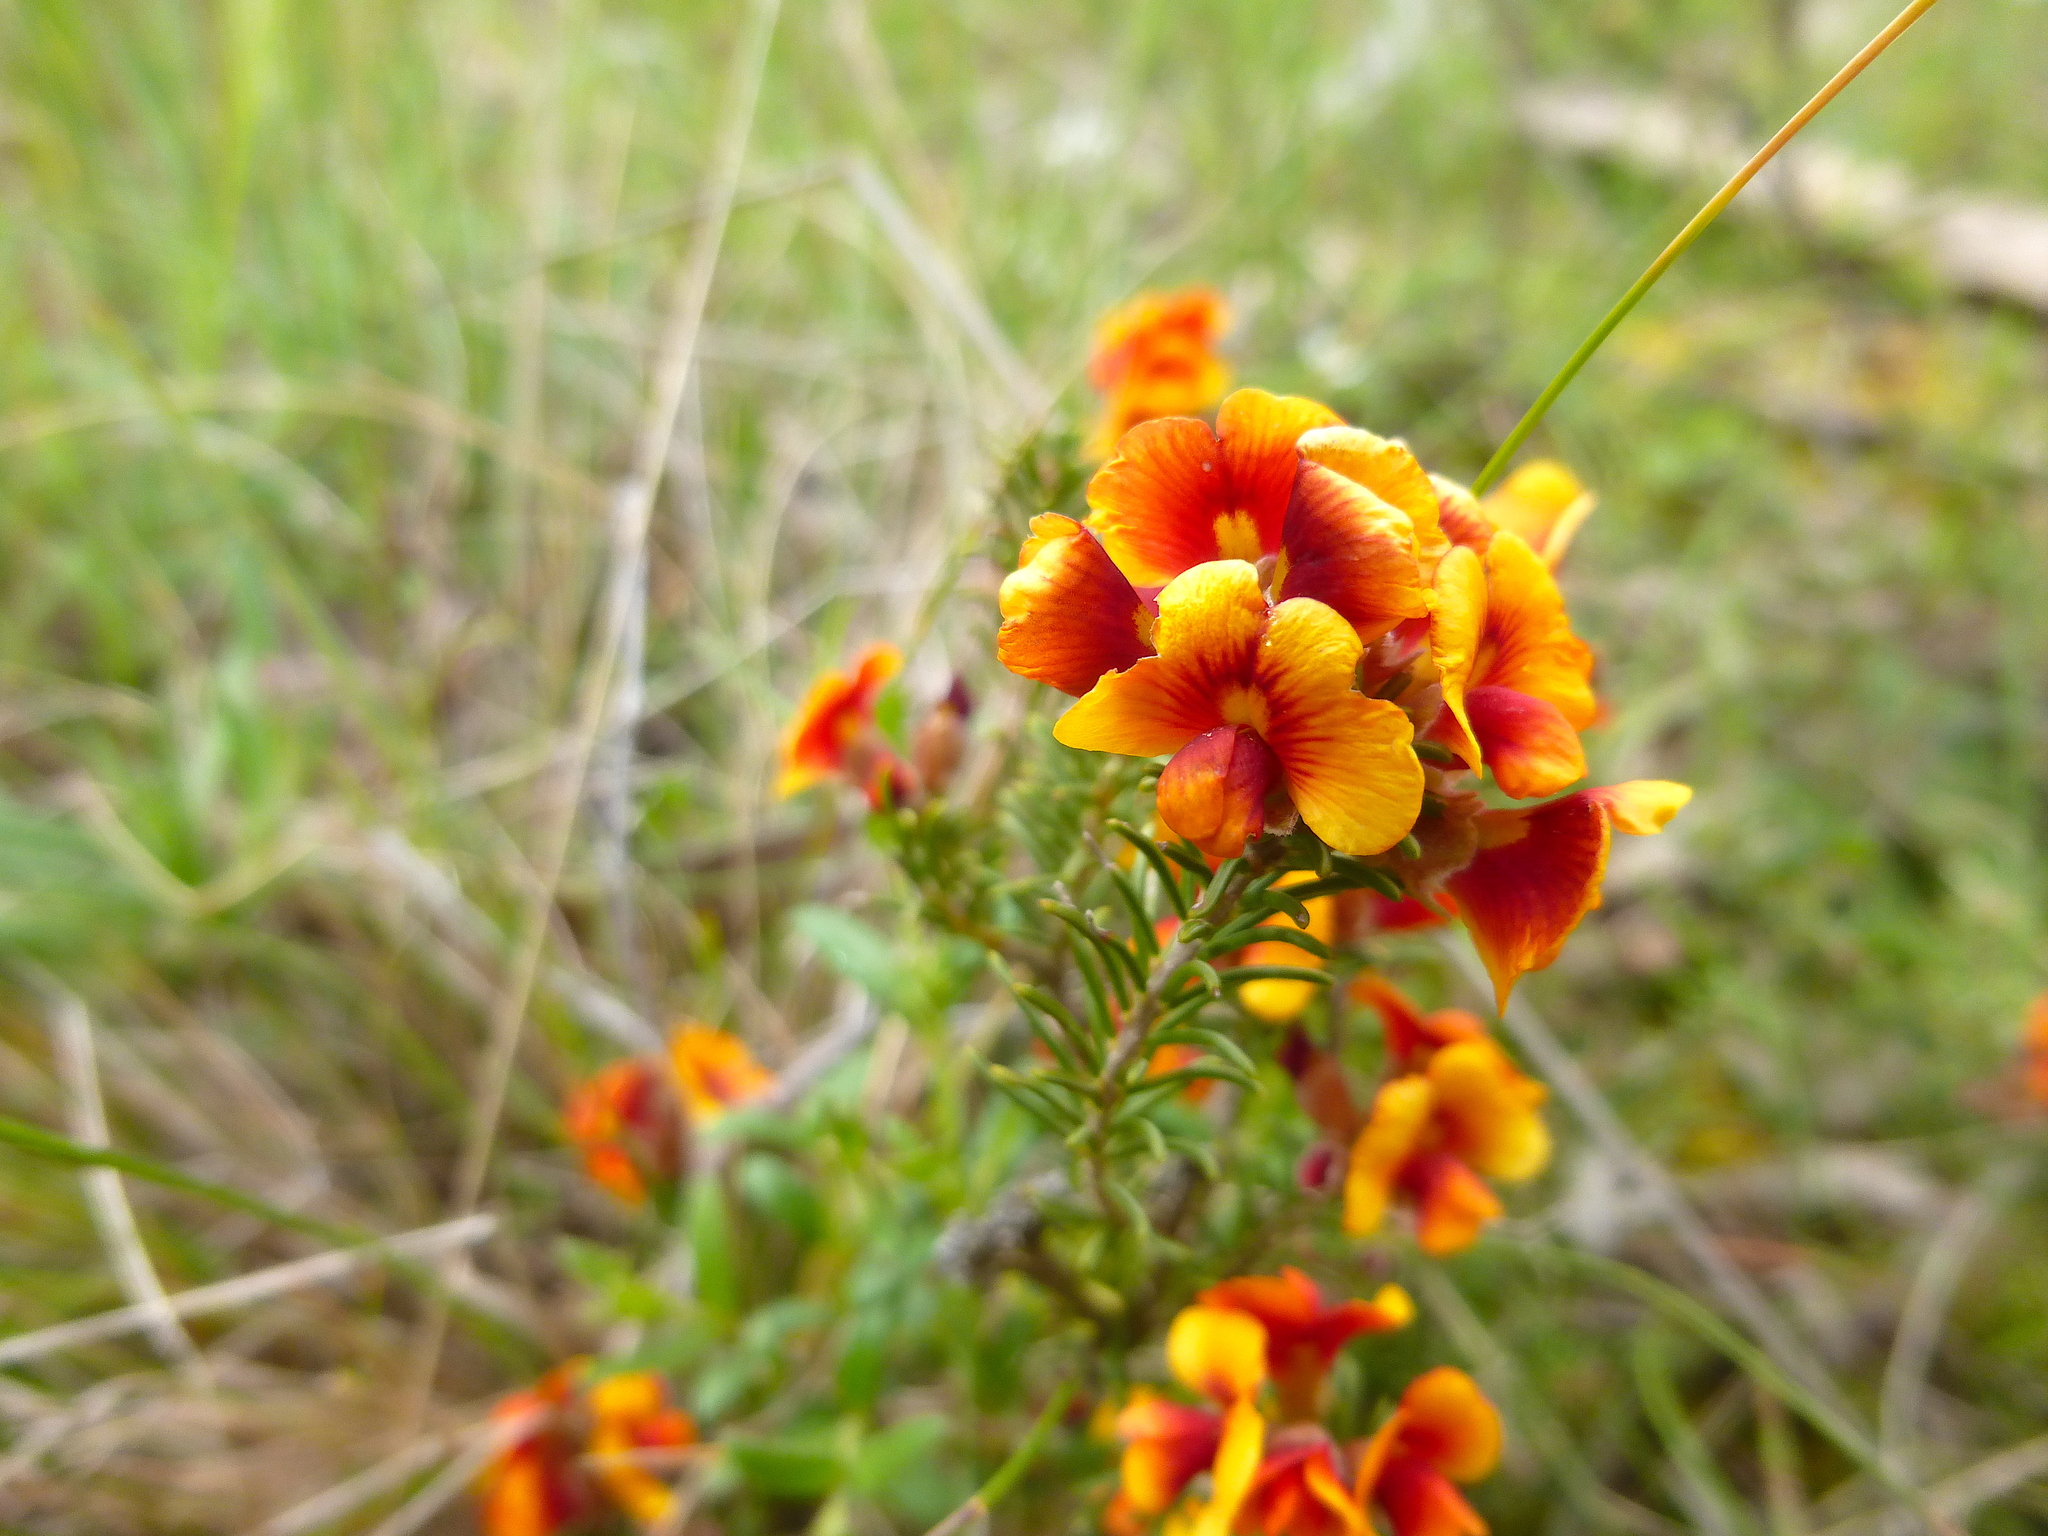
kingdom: Plantae
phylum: Tracheophyta
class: Magnoliopsida
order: Fabales
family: Fabaceae
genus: Dillwynia
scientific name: Dillwynia cinerascens
